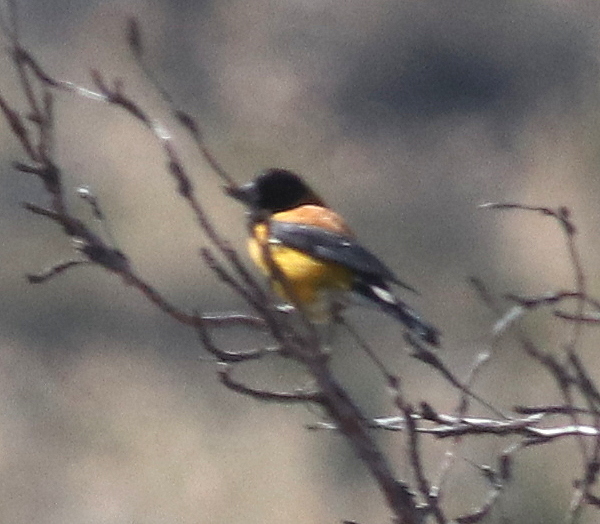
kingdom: Animalia
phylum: Chordata
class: Aves
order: Passeriformes
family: Thraupidae
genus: Phrygilus
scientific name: Phrygilus atriceps
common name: Black-hooded sierra finch
